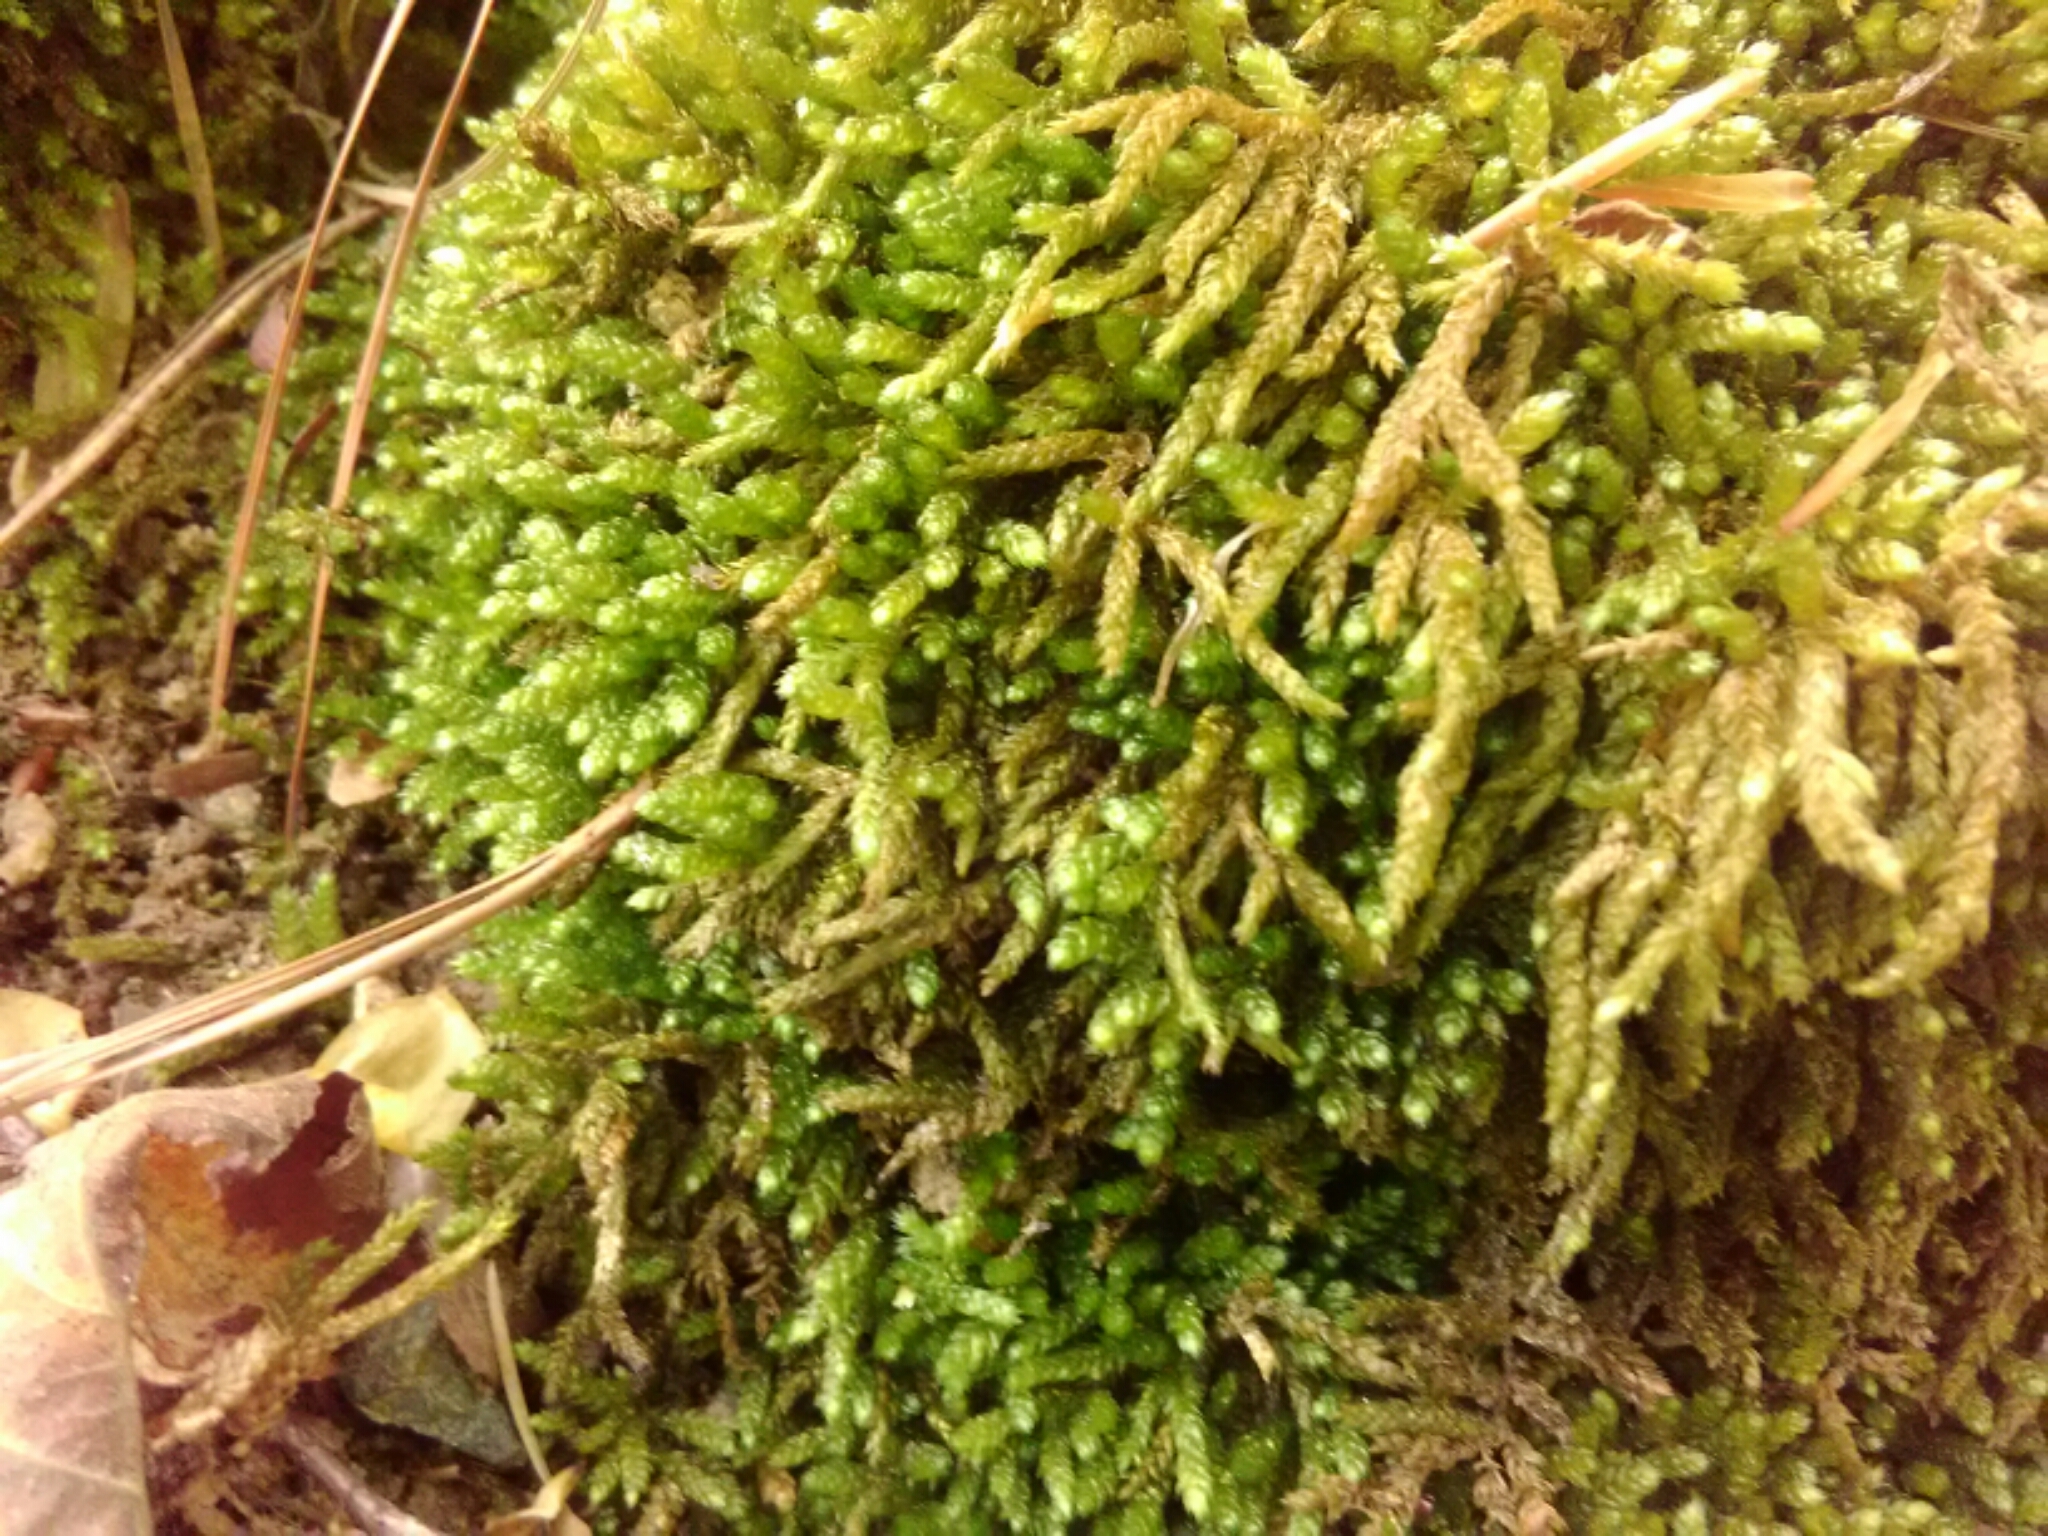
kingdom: Plantae
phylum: Bryophyta
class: Bryopsida
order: Hypnales
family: Brachytheciaceae
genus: Bryoandersonia
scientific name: Bryoandersonia illecebra
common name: Spoon-leaved moss
